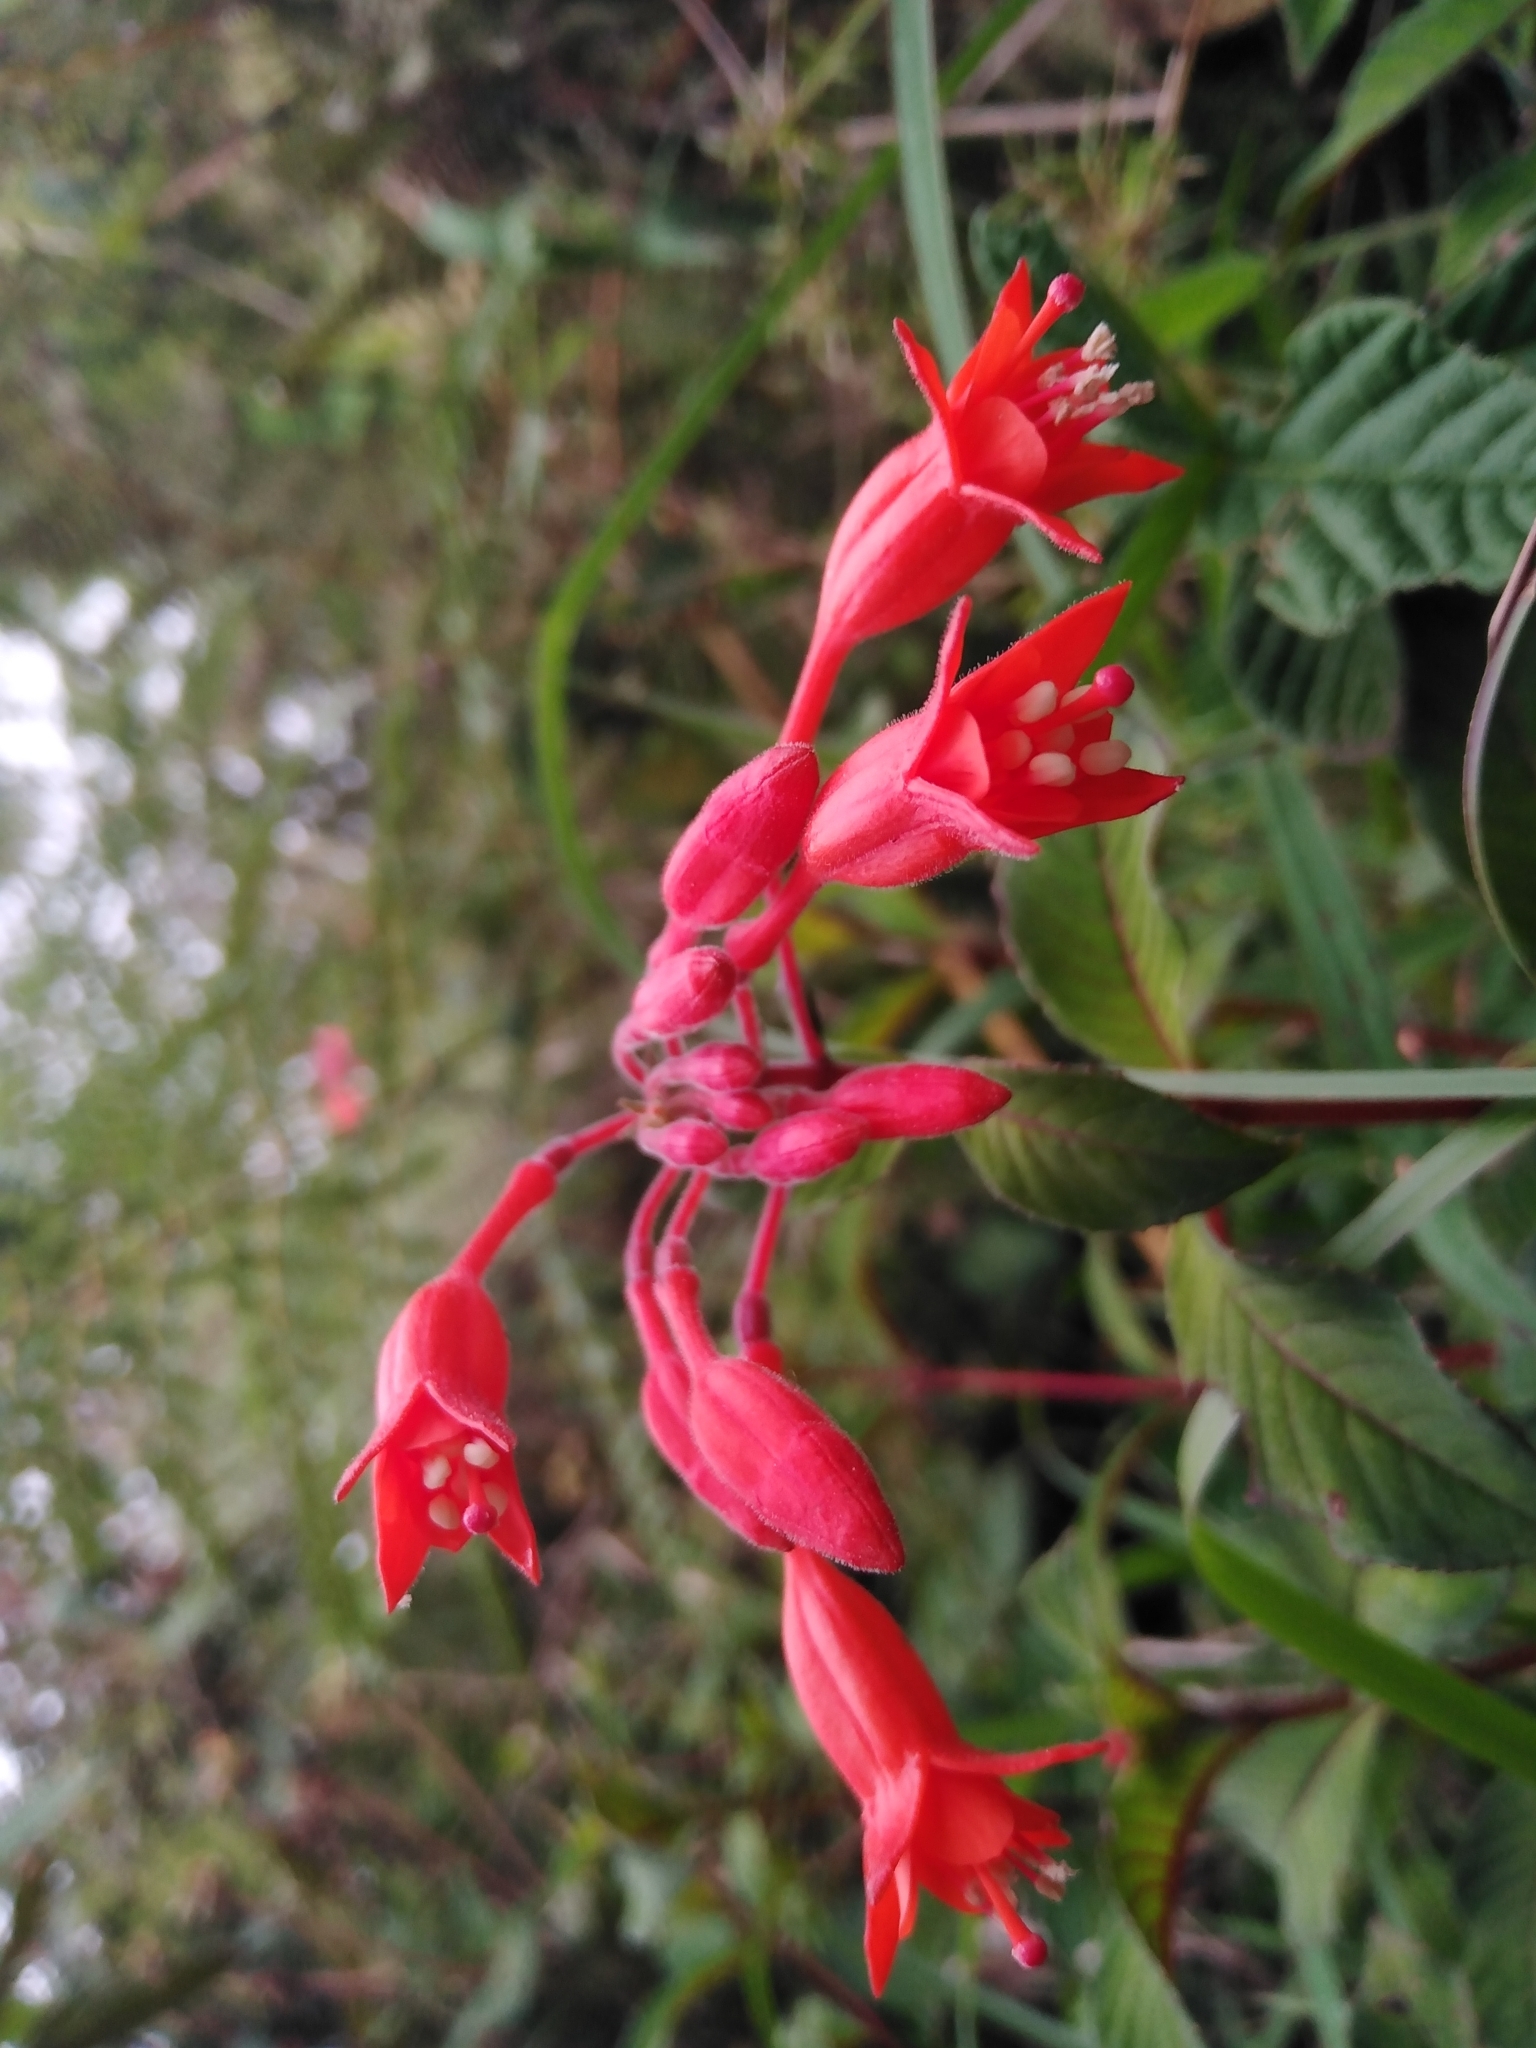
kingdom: Plantae
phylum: Tracheophyta
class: Magnoliopsida
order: Myrtales
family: Onagraceae
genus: Fuchsia
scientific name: Fuchsia pringsheimii
